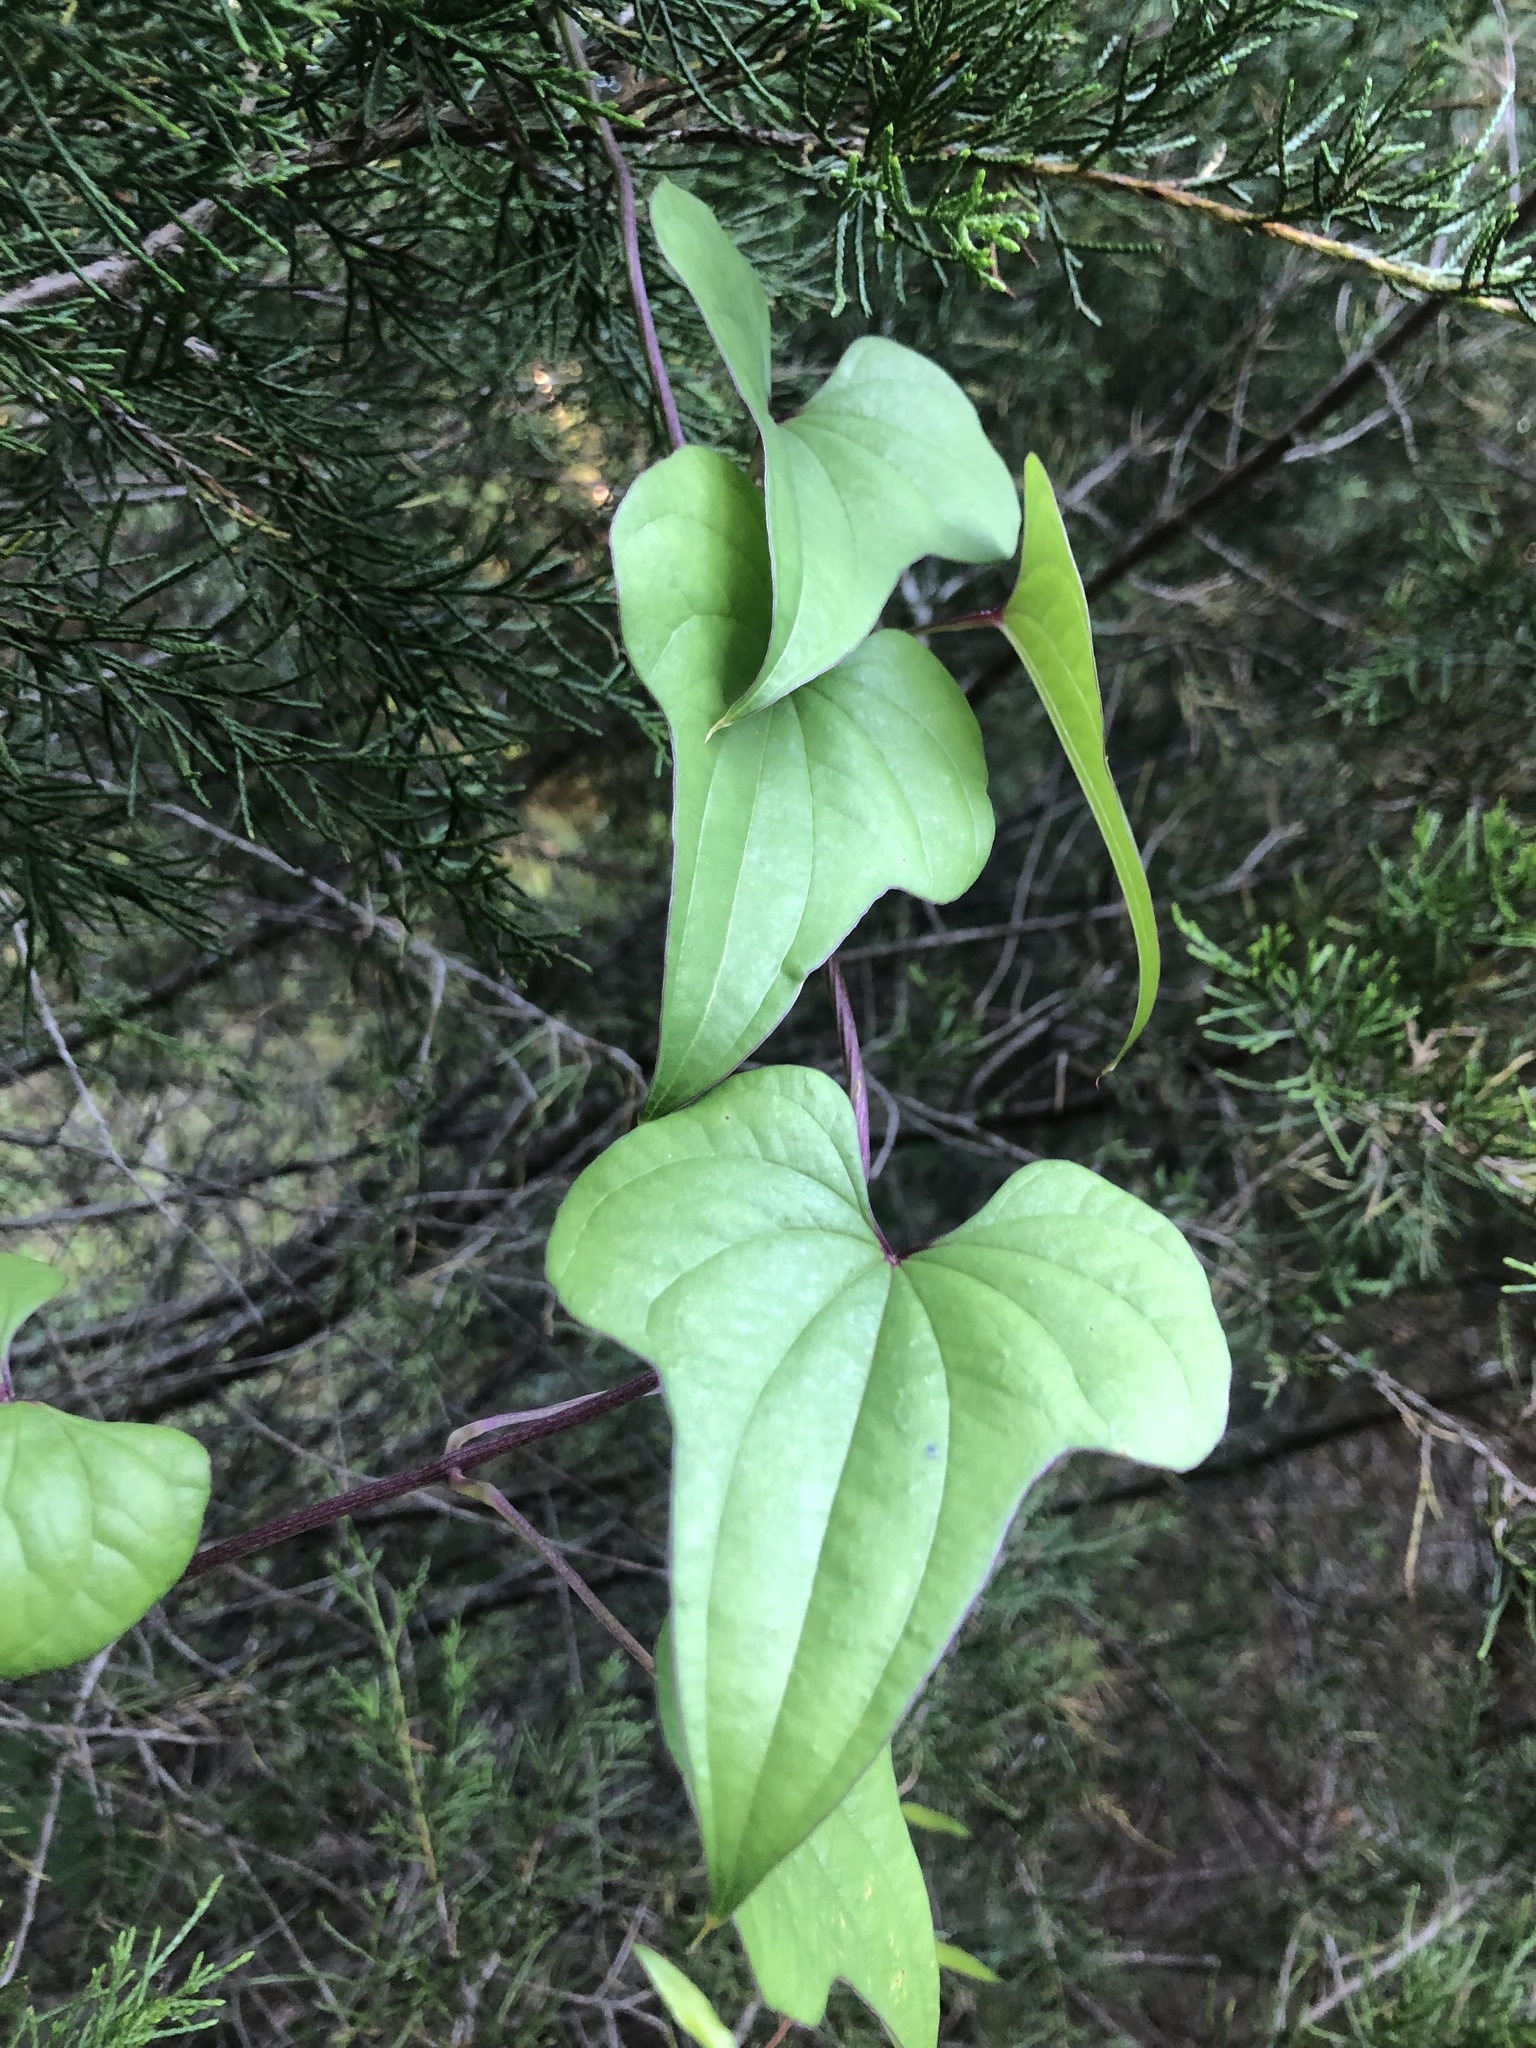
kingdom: Plantae
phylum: Tracheophyta
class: Liliopsida
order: Dioscoreales
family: Dioscoreaceae
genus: Dioscorea
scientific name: Dioscorea polystachya
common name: Chinese yam
